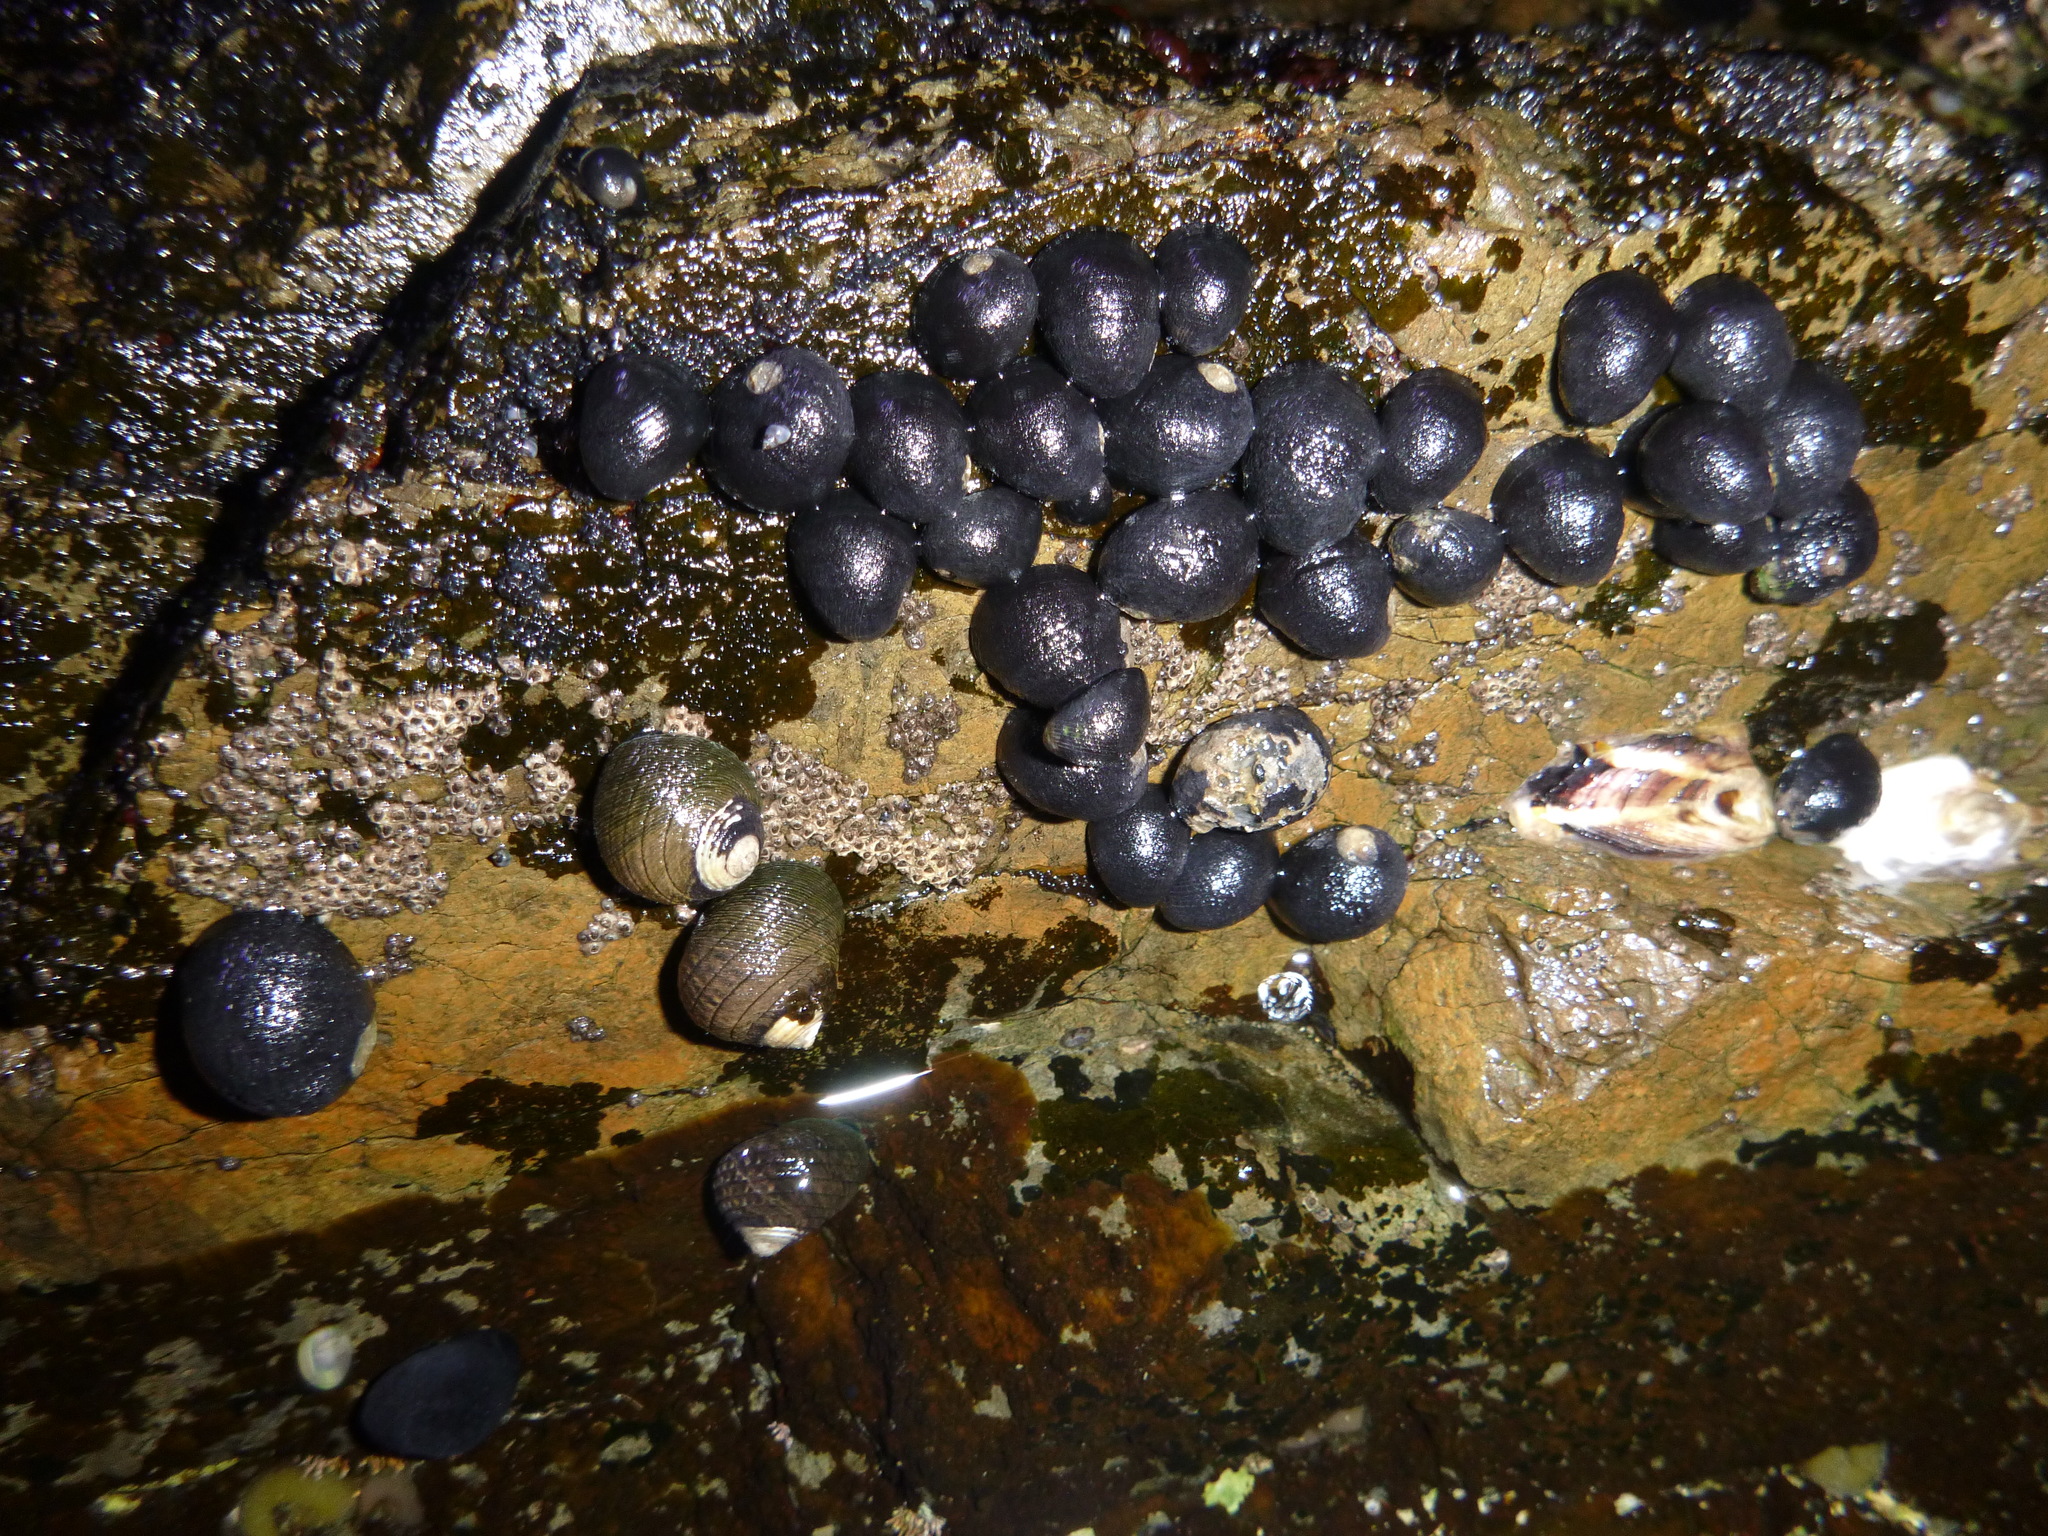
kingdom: Animalia
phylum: Mollusca
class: Gastropoda
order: Trochida
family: Trochidae
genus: Diloma
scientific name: Diloma aethiops
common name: Scorched monodont
